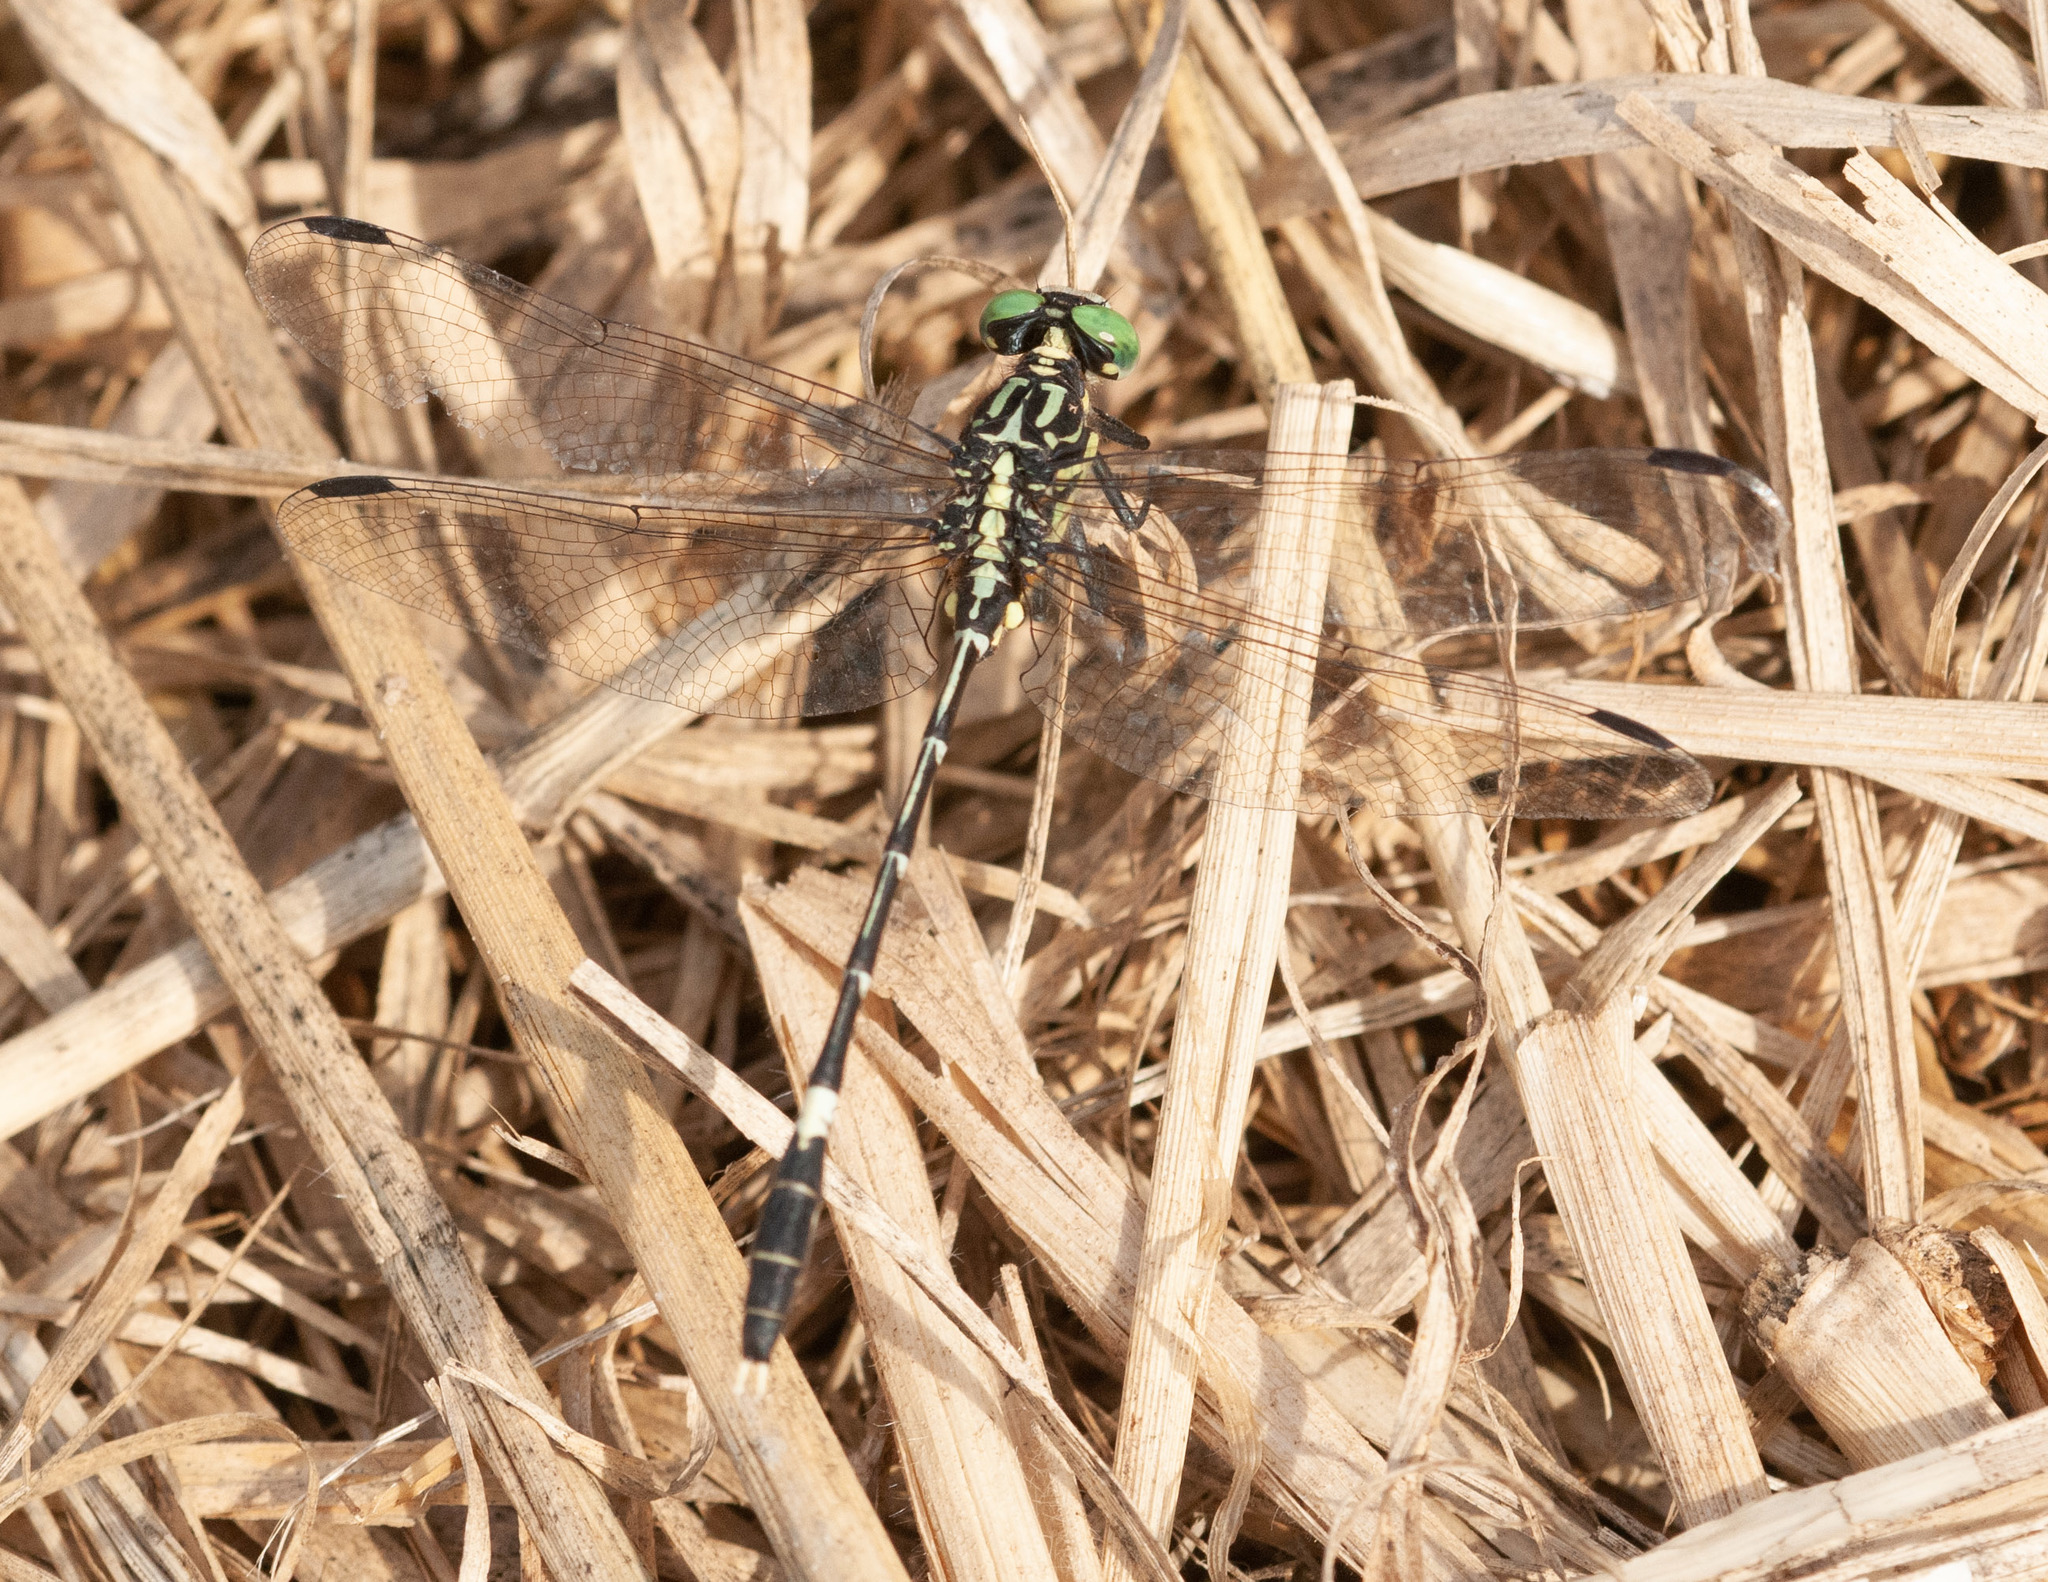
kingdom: Animalia
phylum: Arthropoda
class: Insecta
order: Odonata
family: Gomphidae
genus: Austrogomphus
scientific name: Austrogomphus amphiclitus
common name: Pale hunter
